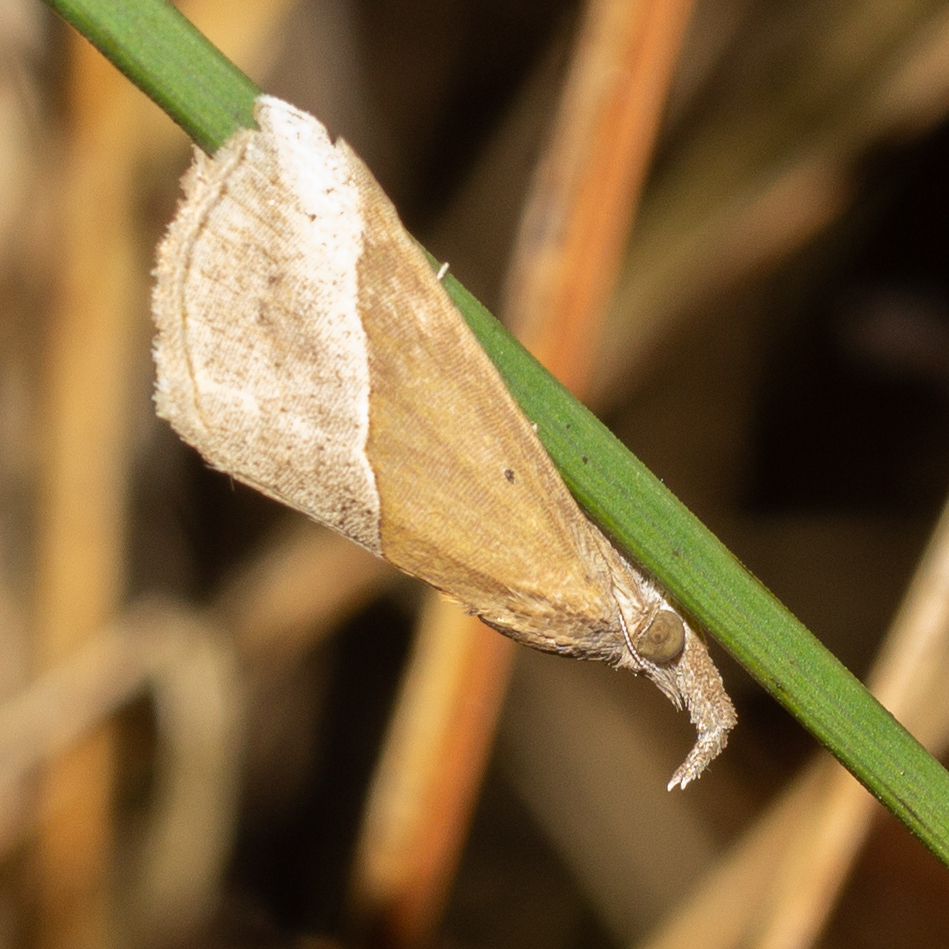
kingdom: Animalia
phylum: Arthropoda
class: Insecta
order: Lepidoptera
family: Erebidae
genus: Hypena
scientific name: Hypena lividalis
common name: Chevron snout
